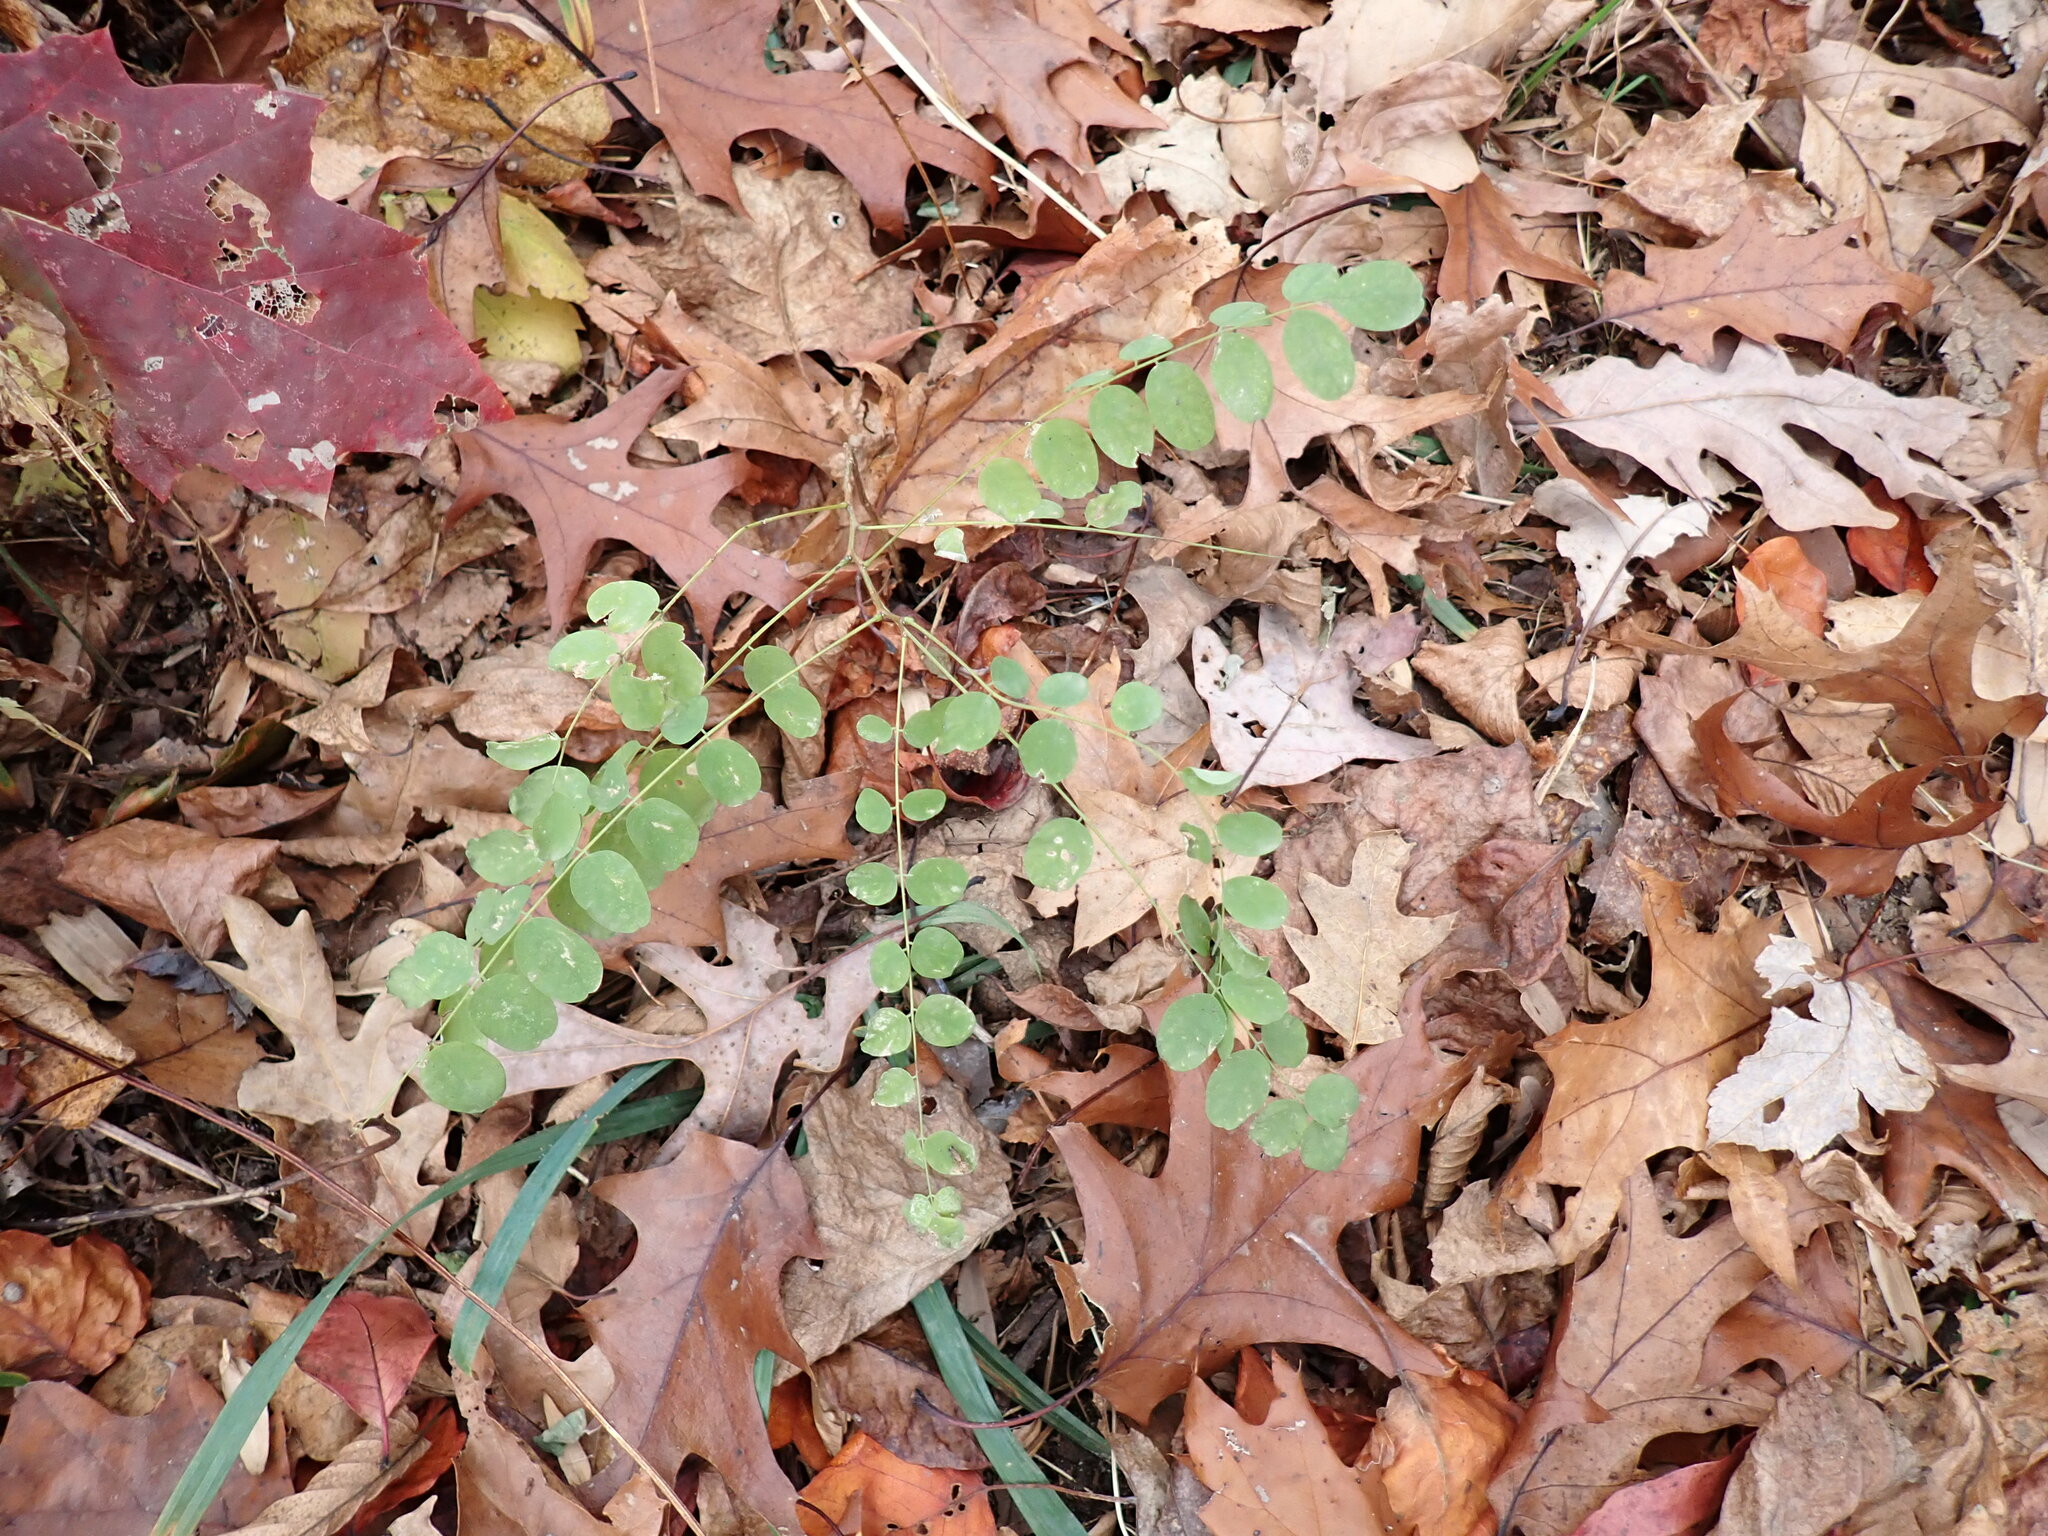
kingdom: Plantae
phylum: Tracheophyta
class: Magnoliopsida
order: Fabales
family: Fabaceae
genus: Robinia
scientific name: Robinia pseudoacacia
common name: Black locust
